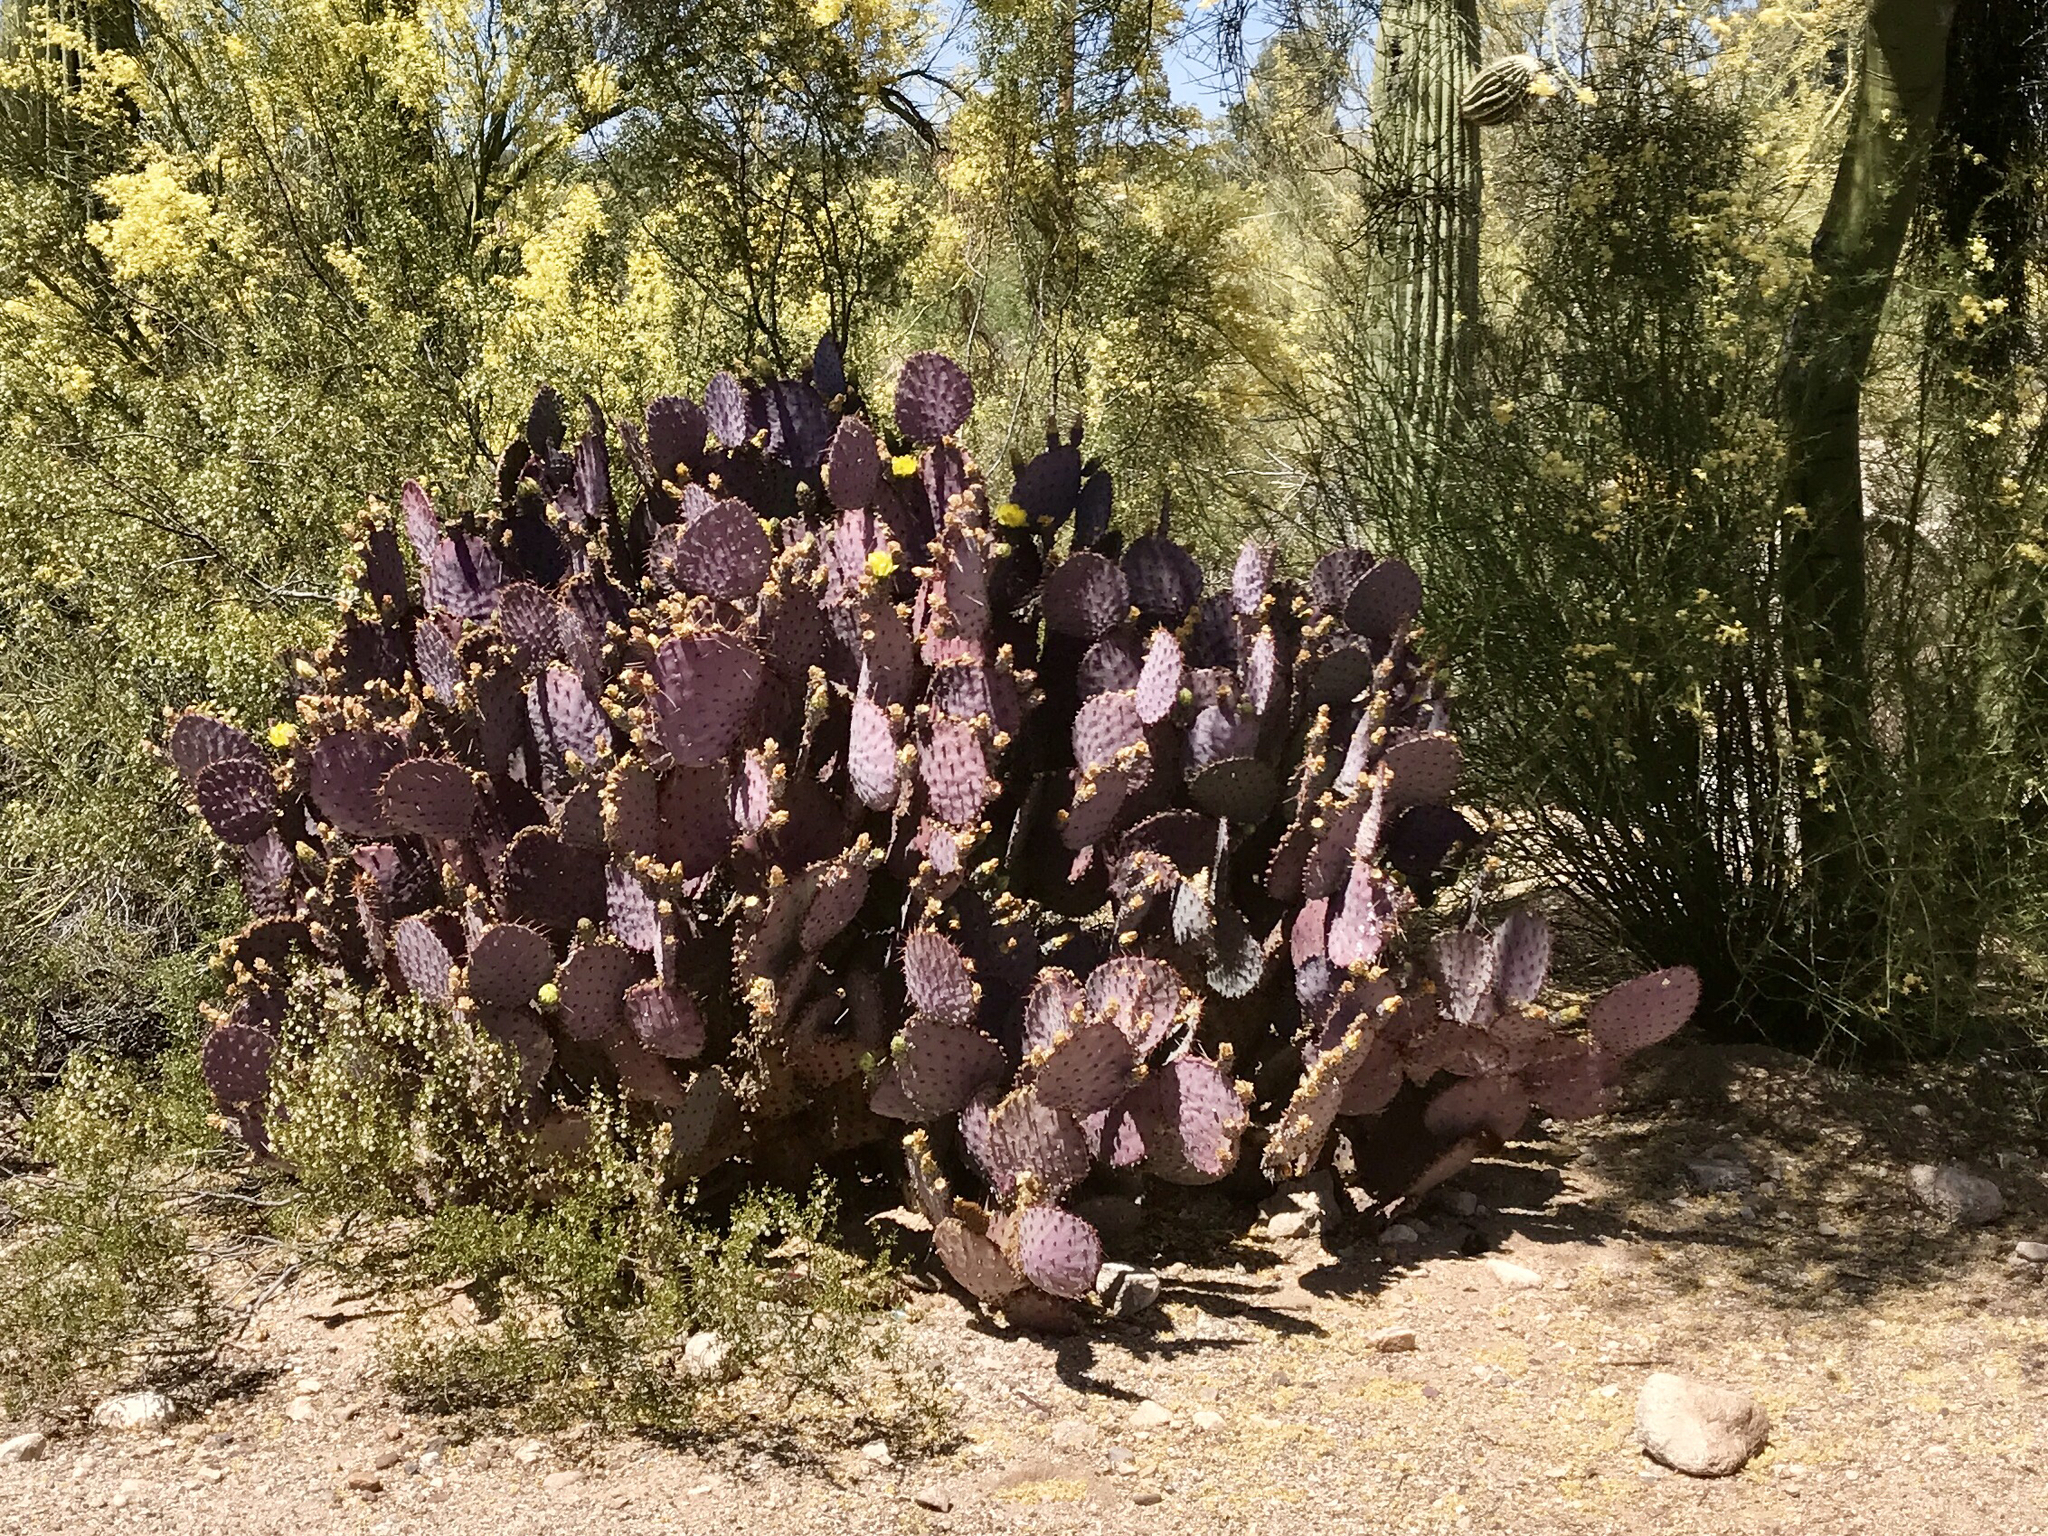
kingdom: Plantae
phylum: Tracheophyta
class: Magnoliopsida
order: Caryophyllales
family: Cactaceae
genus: Opuntia
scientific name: Opuntia gosseliniana
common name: Violet prickly-pear
